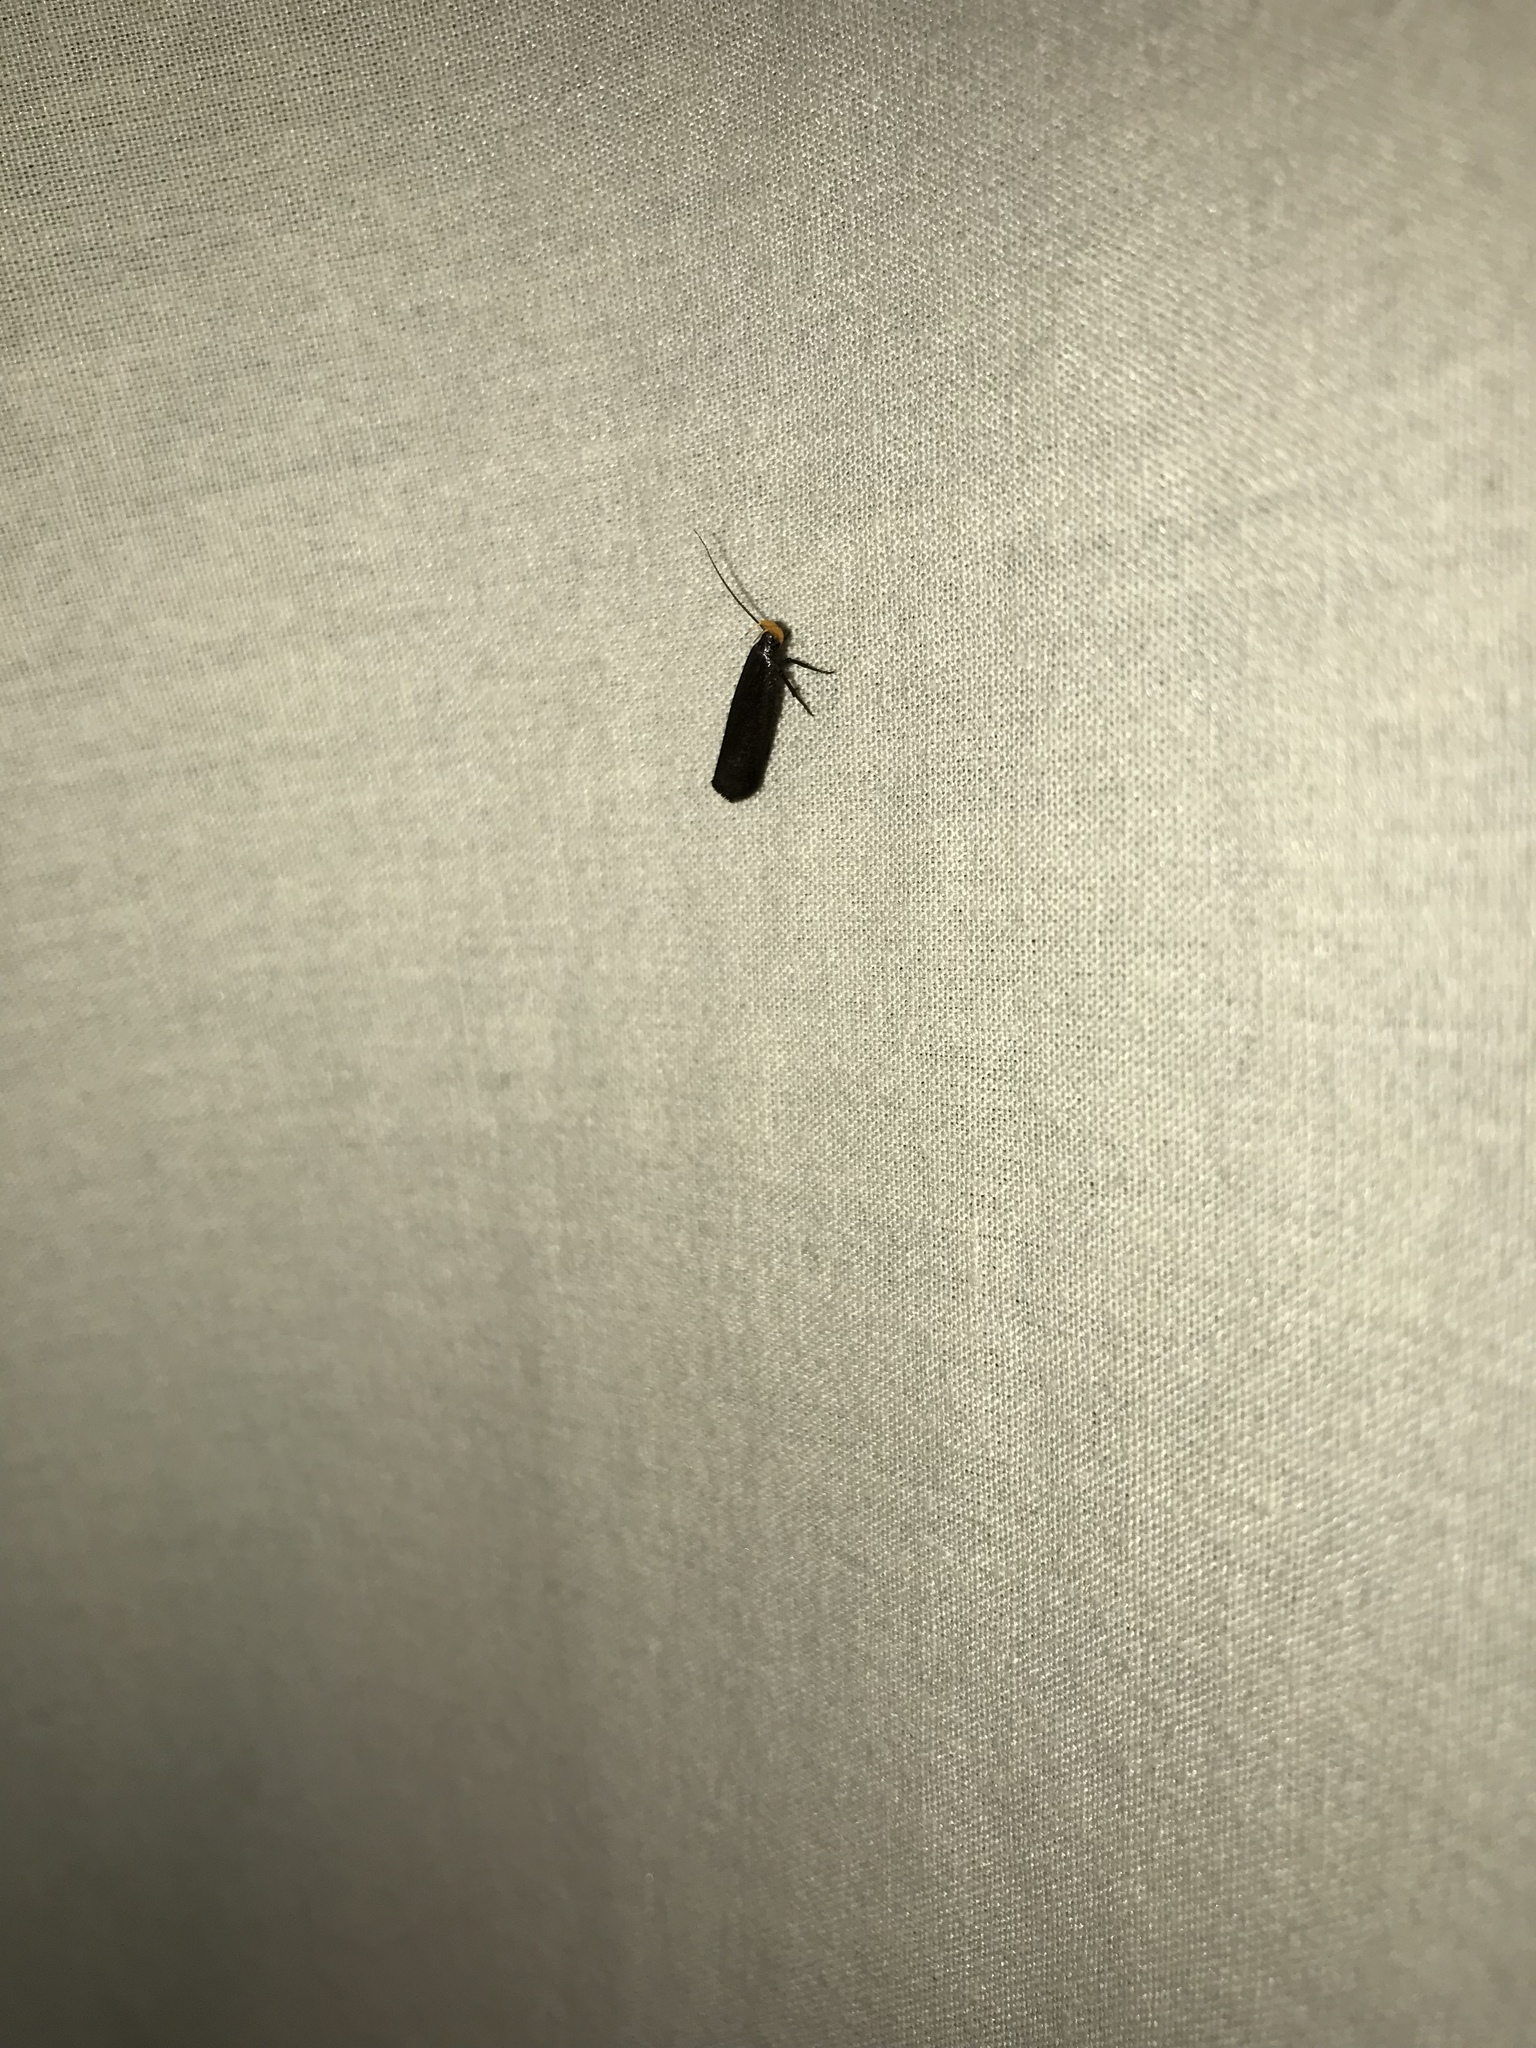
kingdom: Animalia
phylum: Arthropoda
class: Insecta
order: Lepidoptera
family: Gelechiidae
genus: Dichomeris
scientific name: Dichomeris purpureofusca
